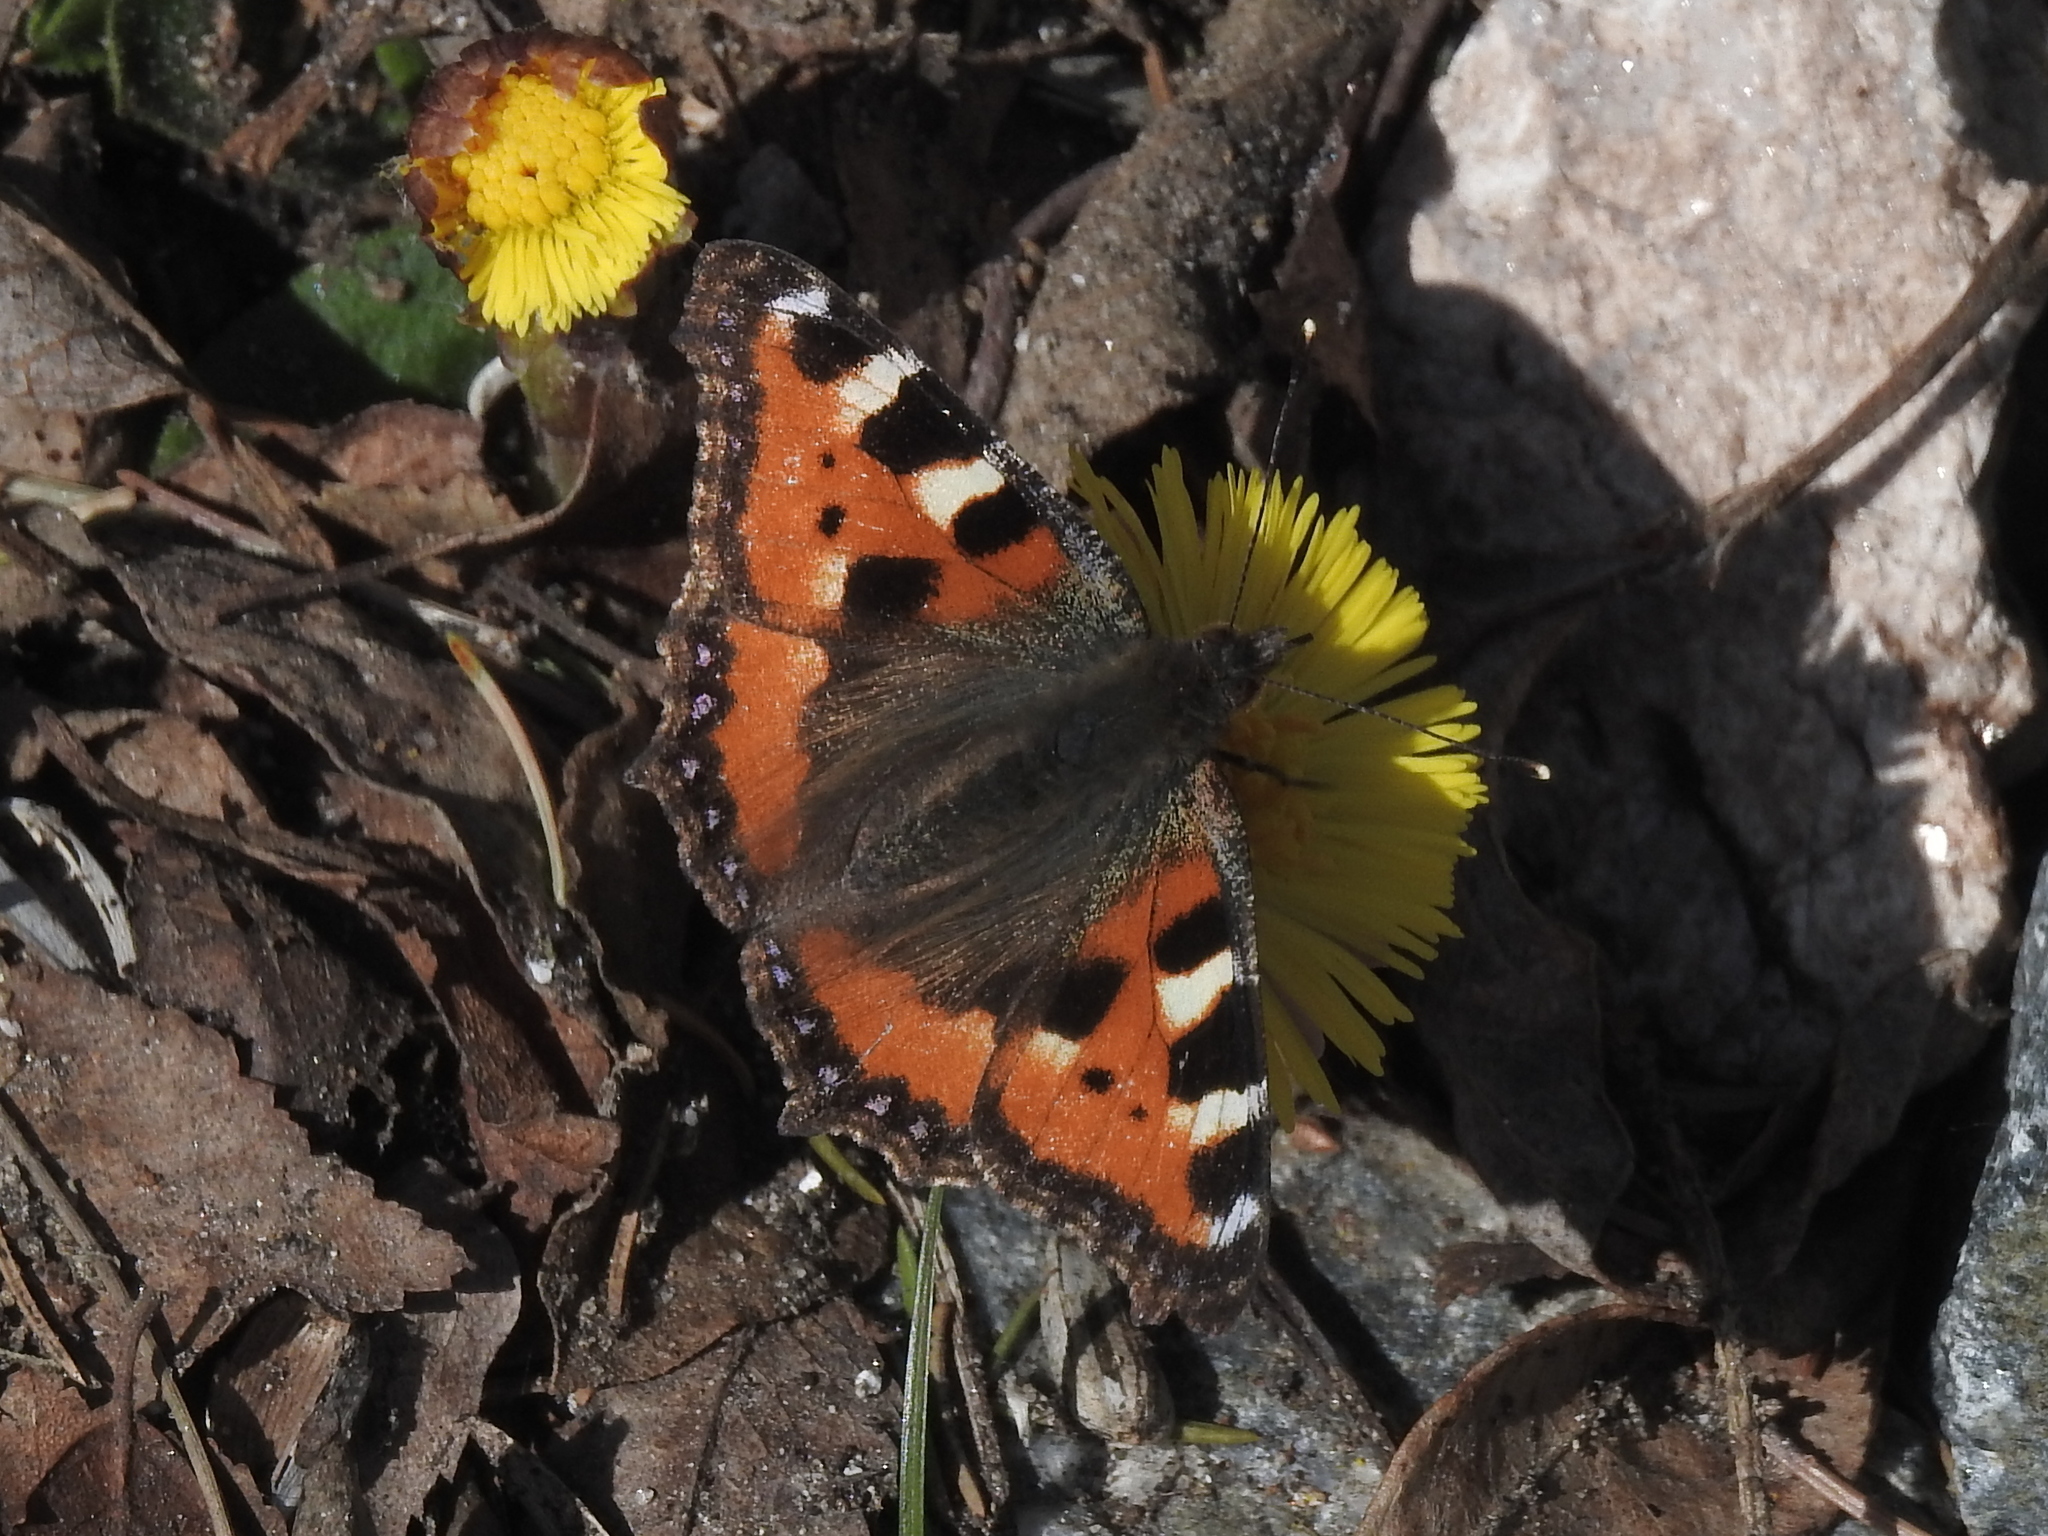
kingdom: Animalia
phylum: Arthropoda
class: Insecta
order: Lepidoptera
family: Nymphalidae
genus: Aglais
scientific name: Aglais urticae
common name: Small tortoiseshell
